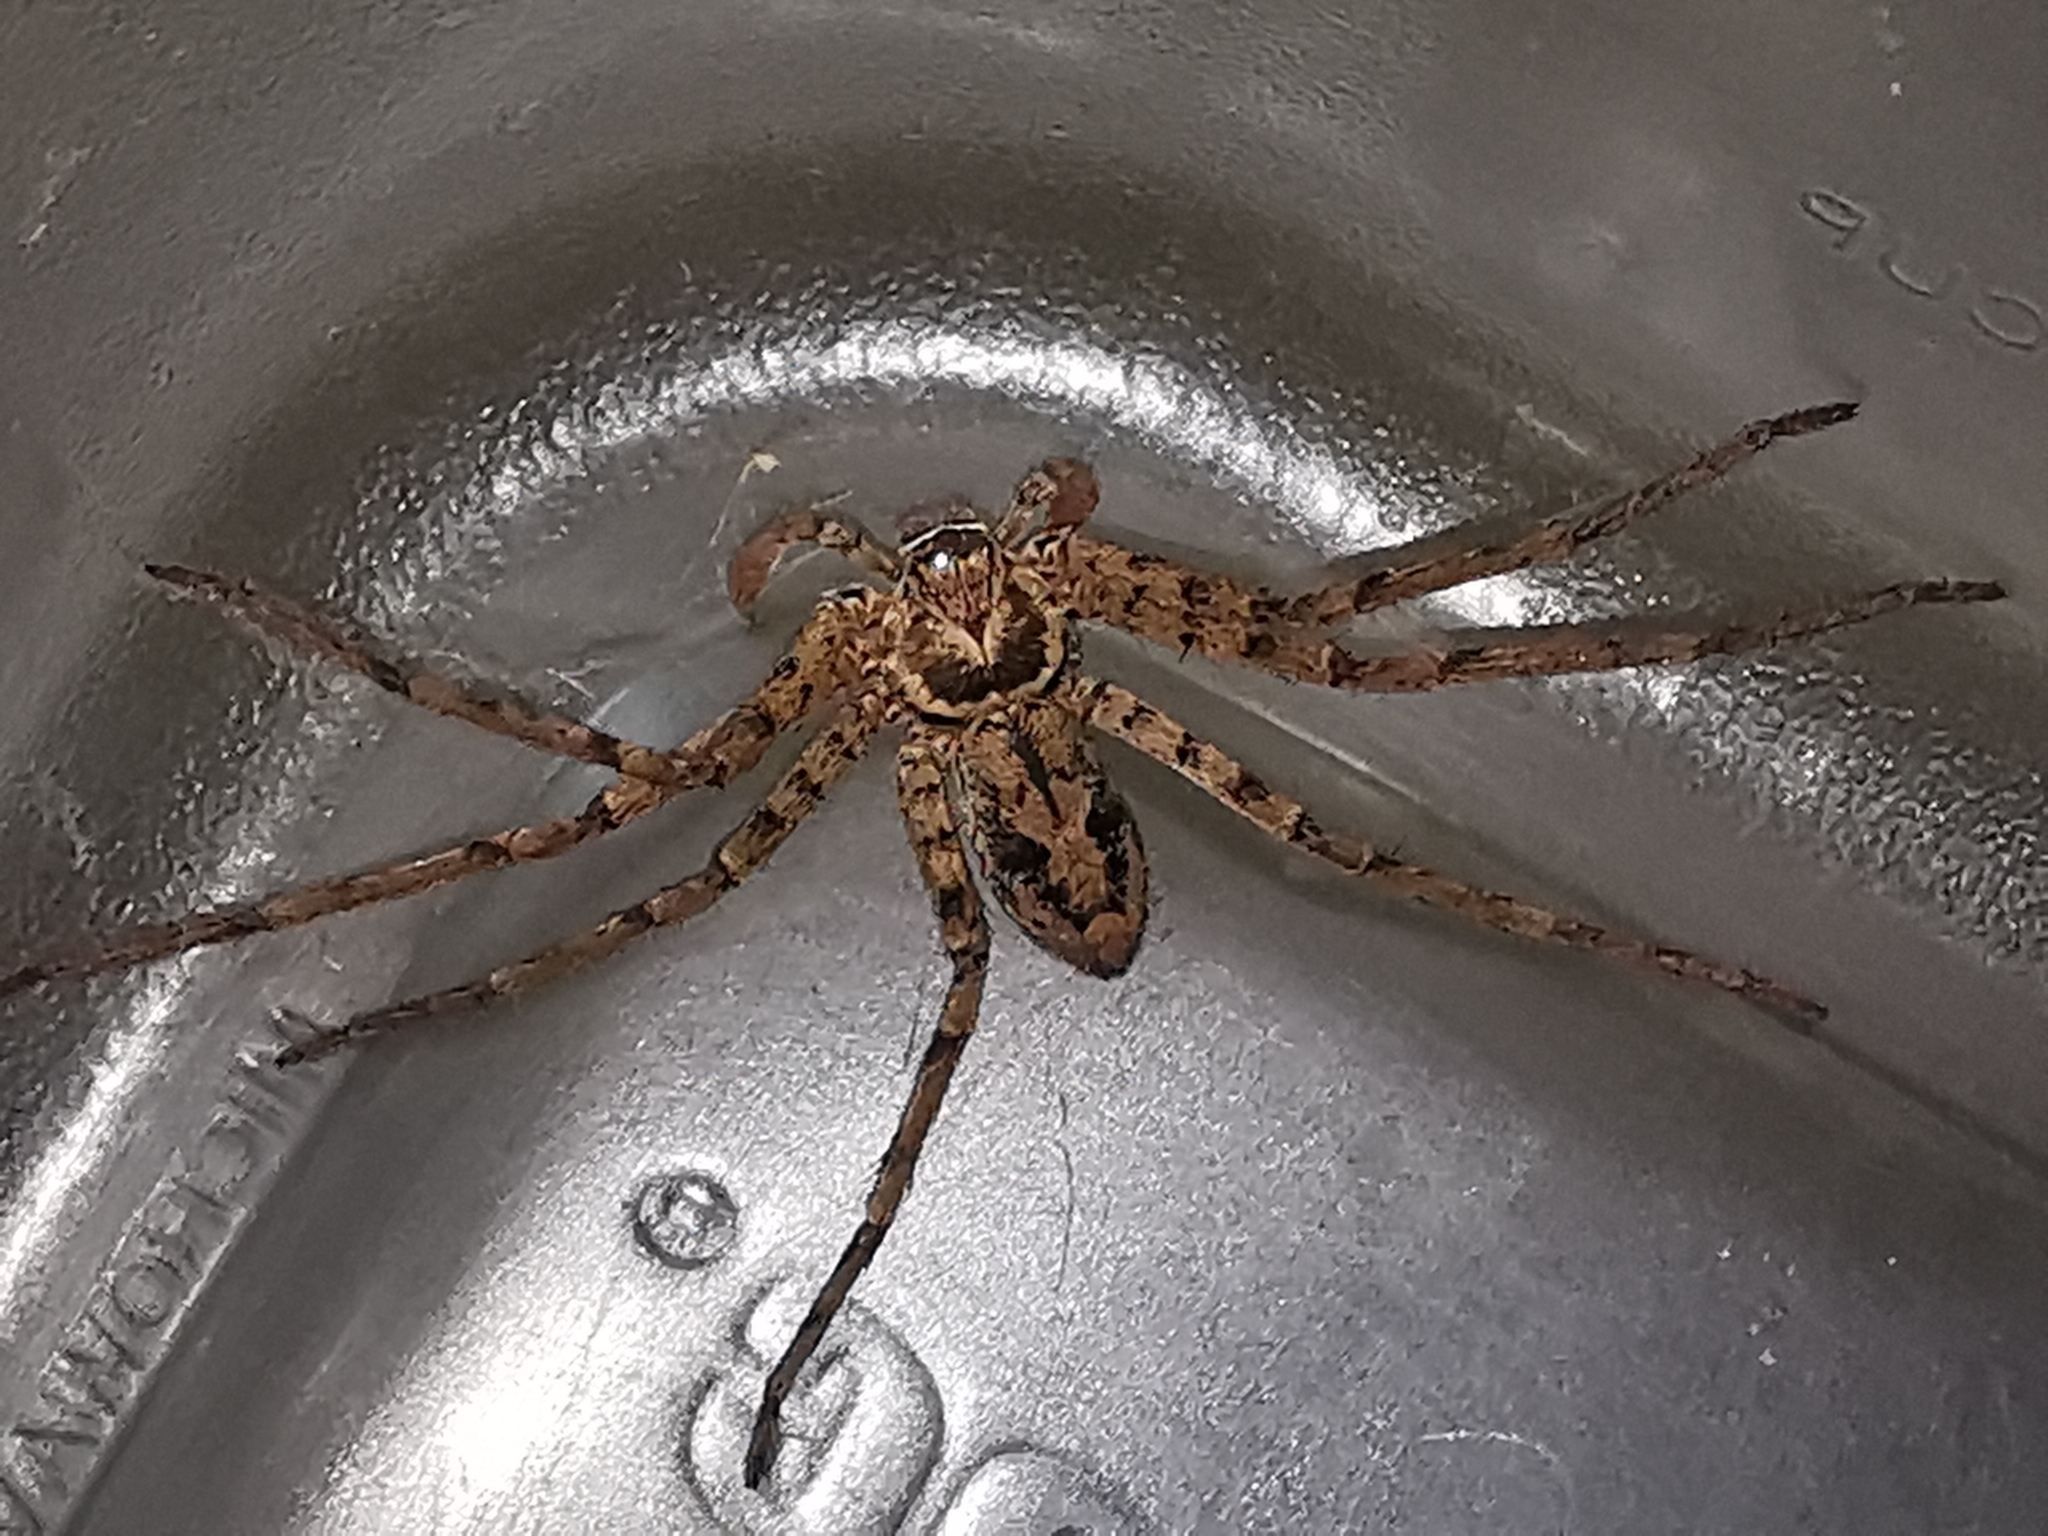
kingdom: Animalia
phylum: Arthropoda
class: Arachnida
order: Araneae
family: Sparassidae
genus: Heteropoda
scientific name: Heteropoda venatoria
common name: Huntsman spider
